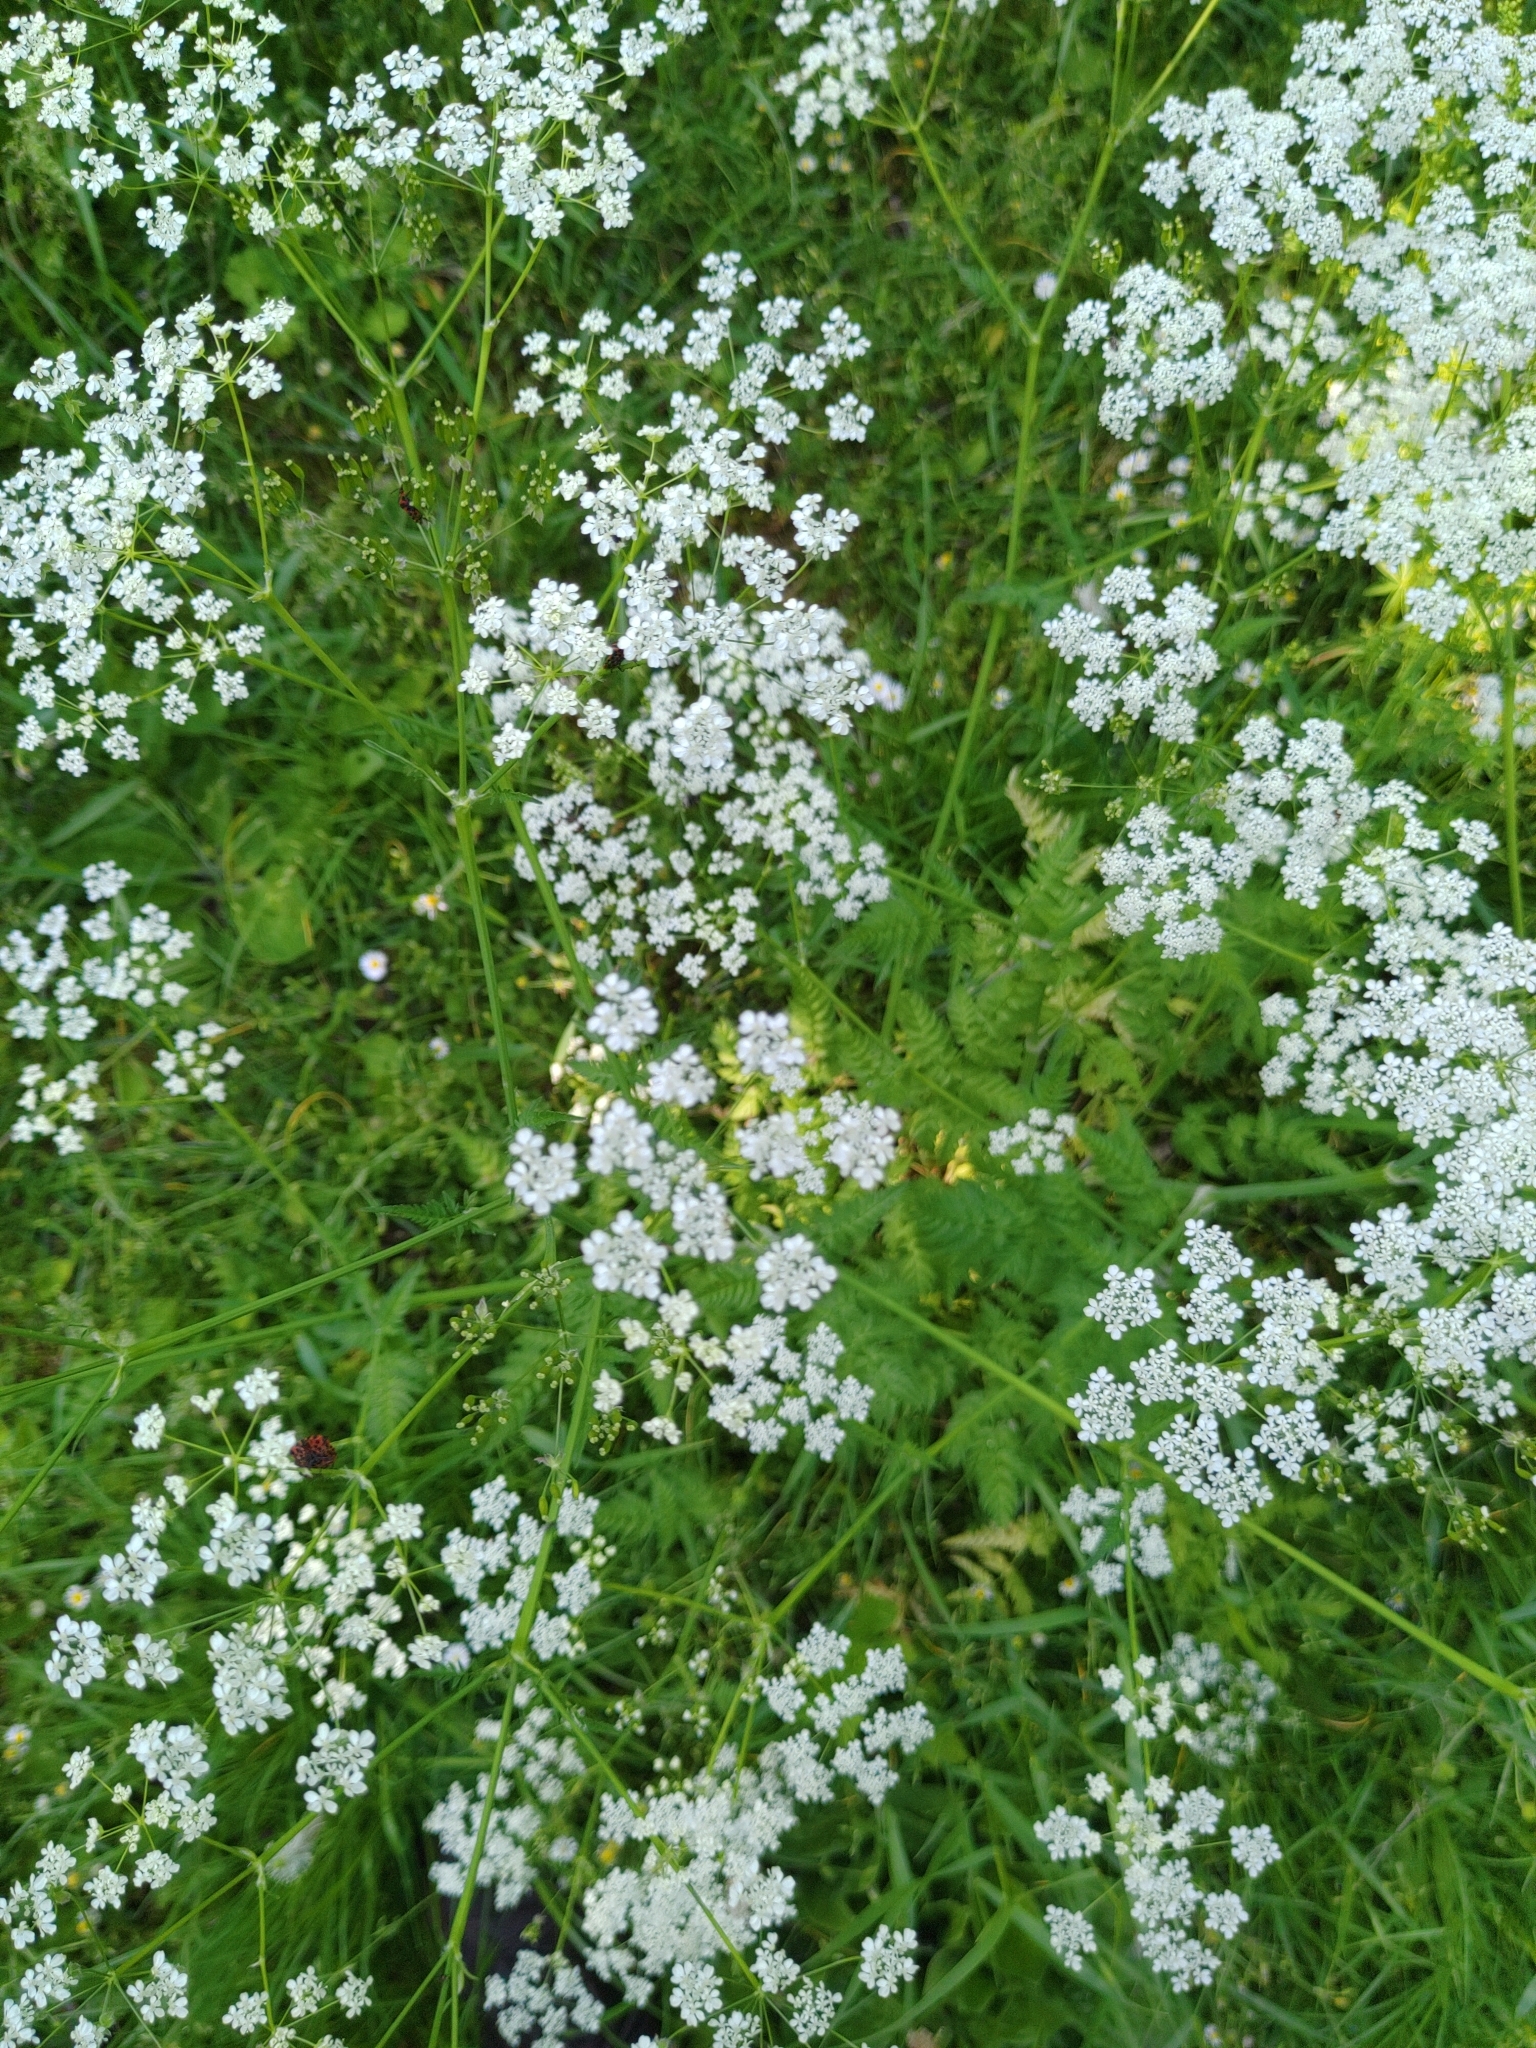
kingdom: Plantae
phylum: Tracheophyta
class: Magnoliopsida
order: Apiales
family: Apiaceae
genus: Anthriscus
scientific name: Anthriscus sylvestris
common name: Cow parsley
